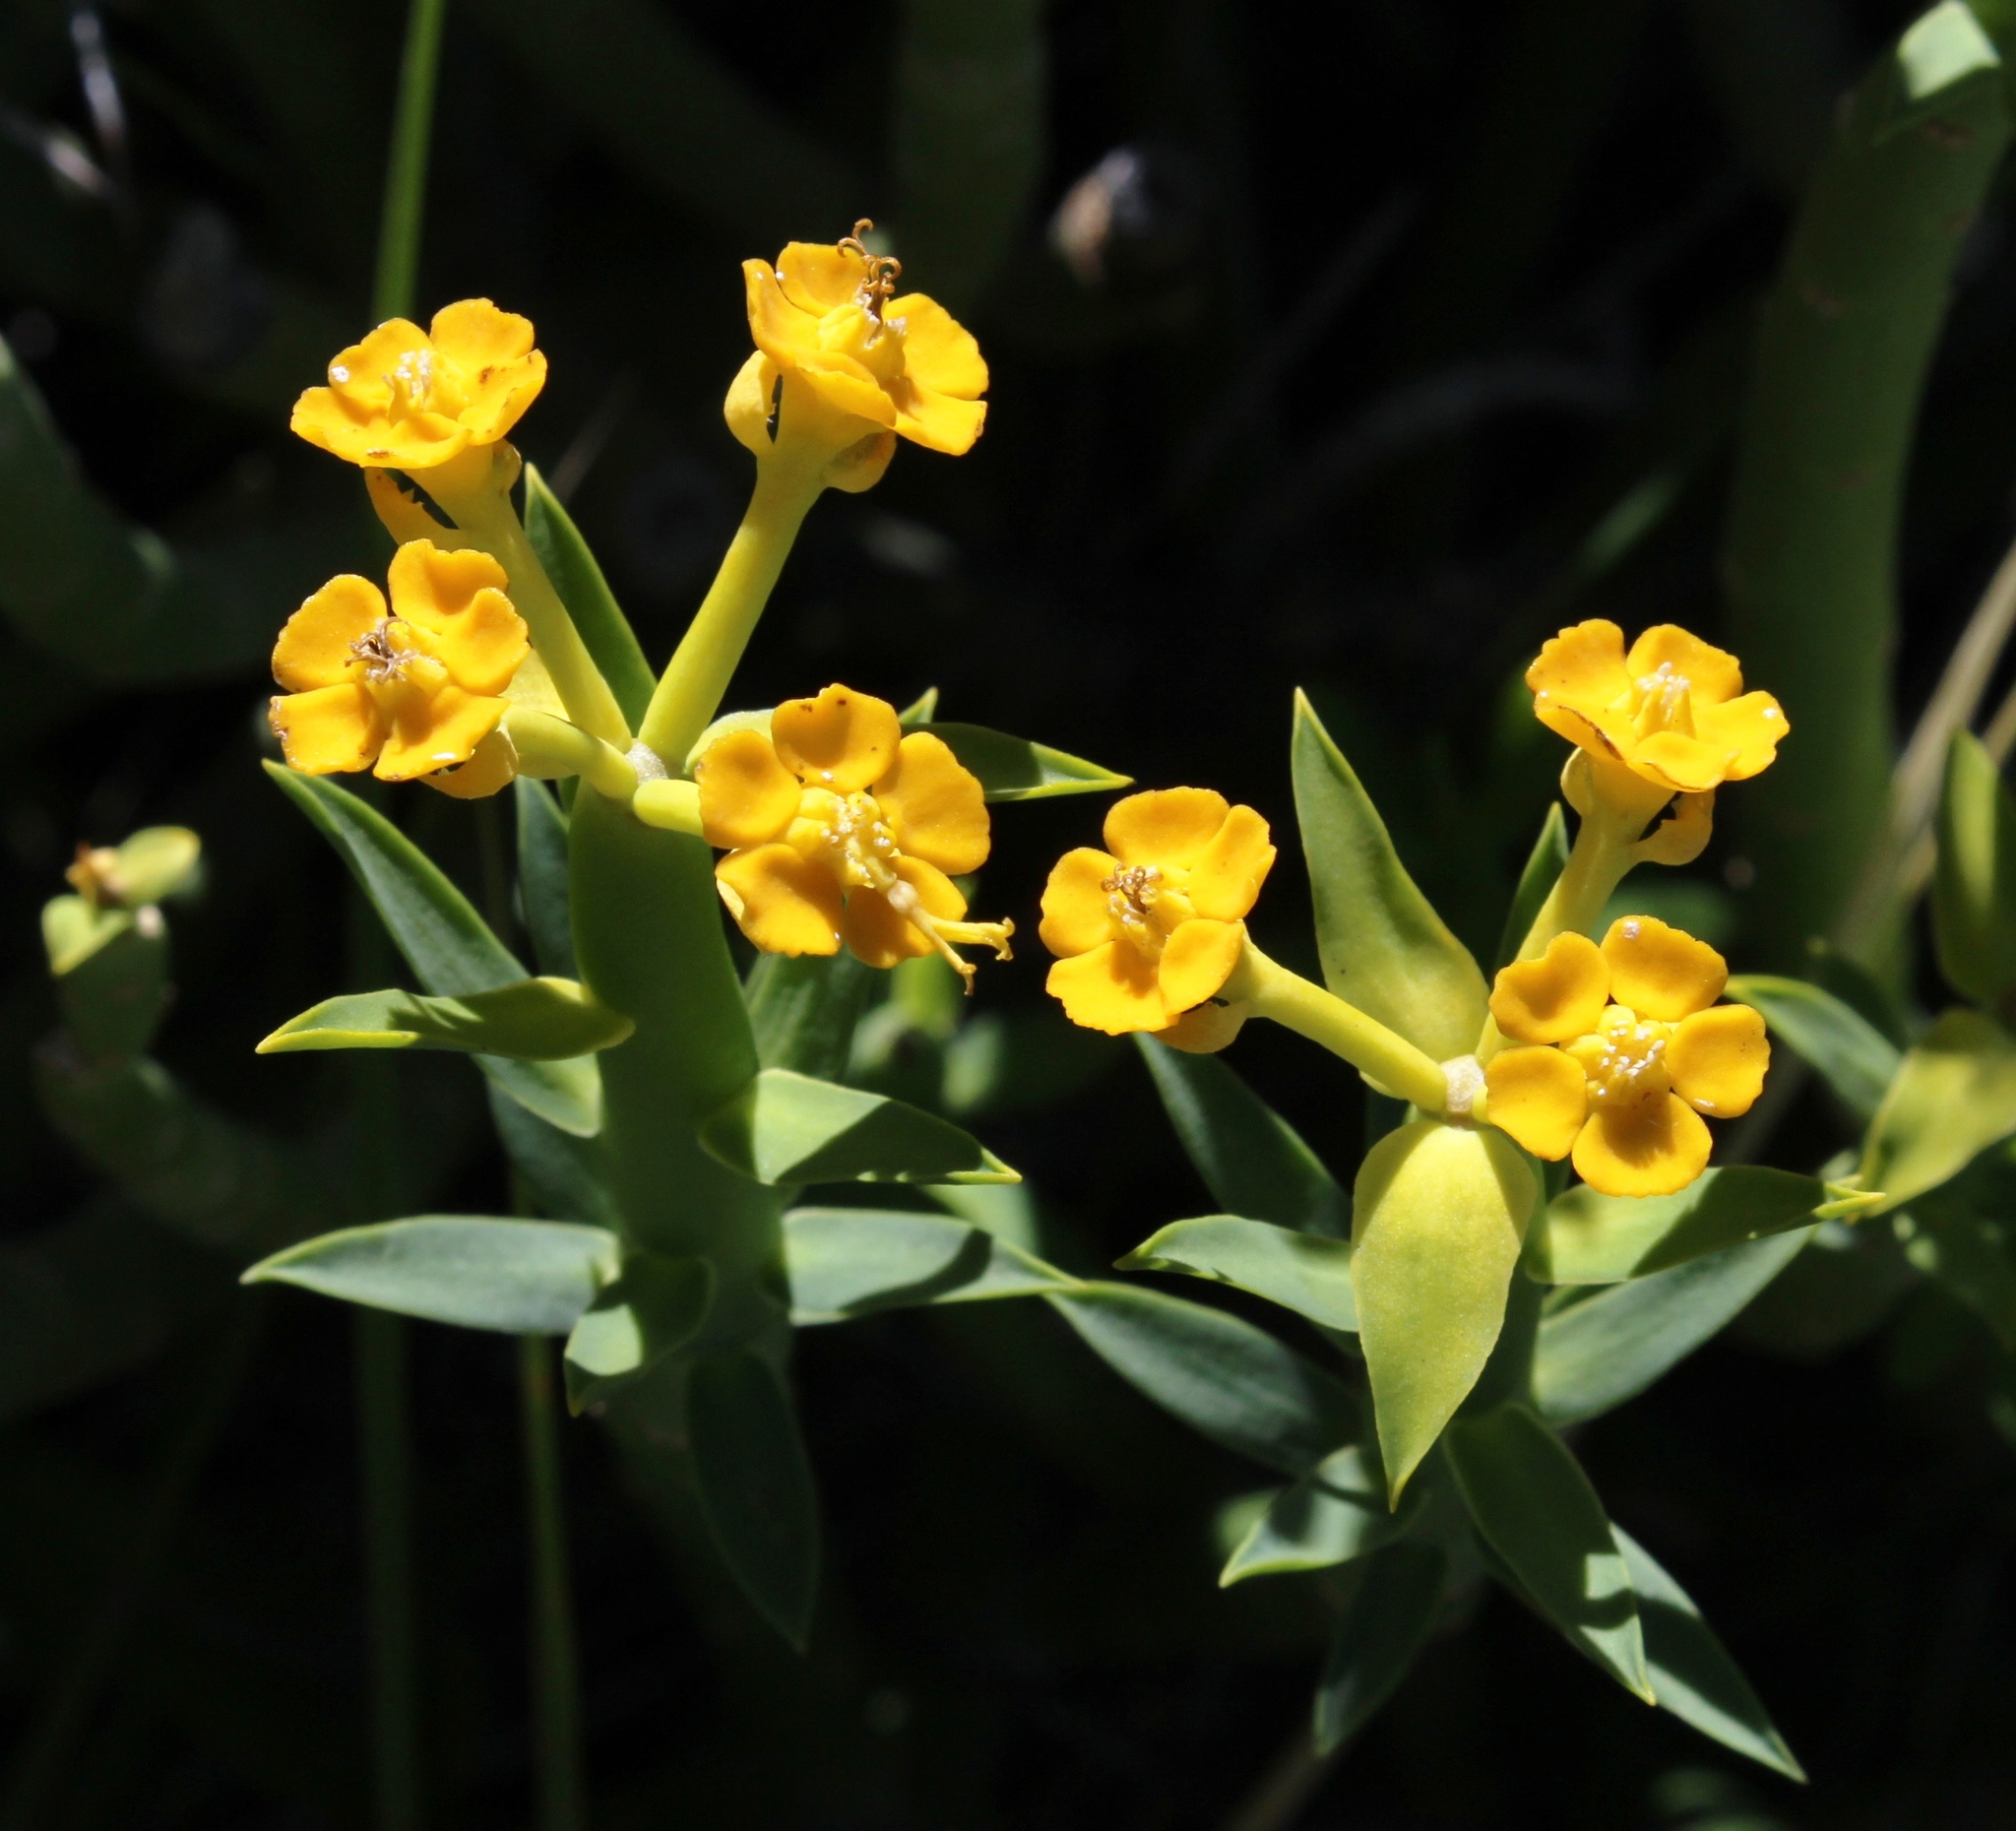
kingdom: Plantae
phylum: Tracheophyta
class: Magnoliopsida
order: Malpighiales
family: Euphorbiaceae
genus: Euphorbia
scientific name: Euphorbia mauritanica
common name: Jackal's-food
